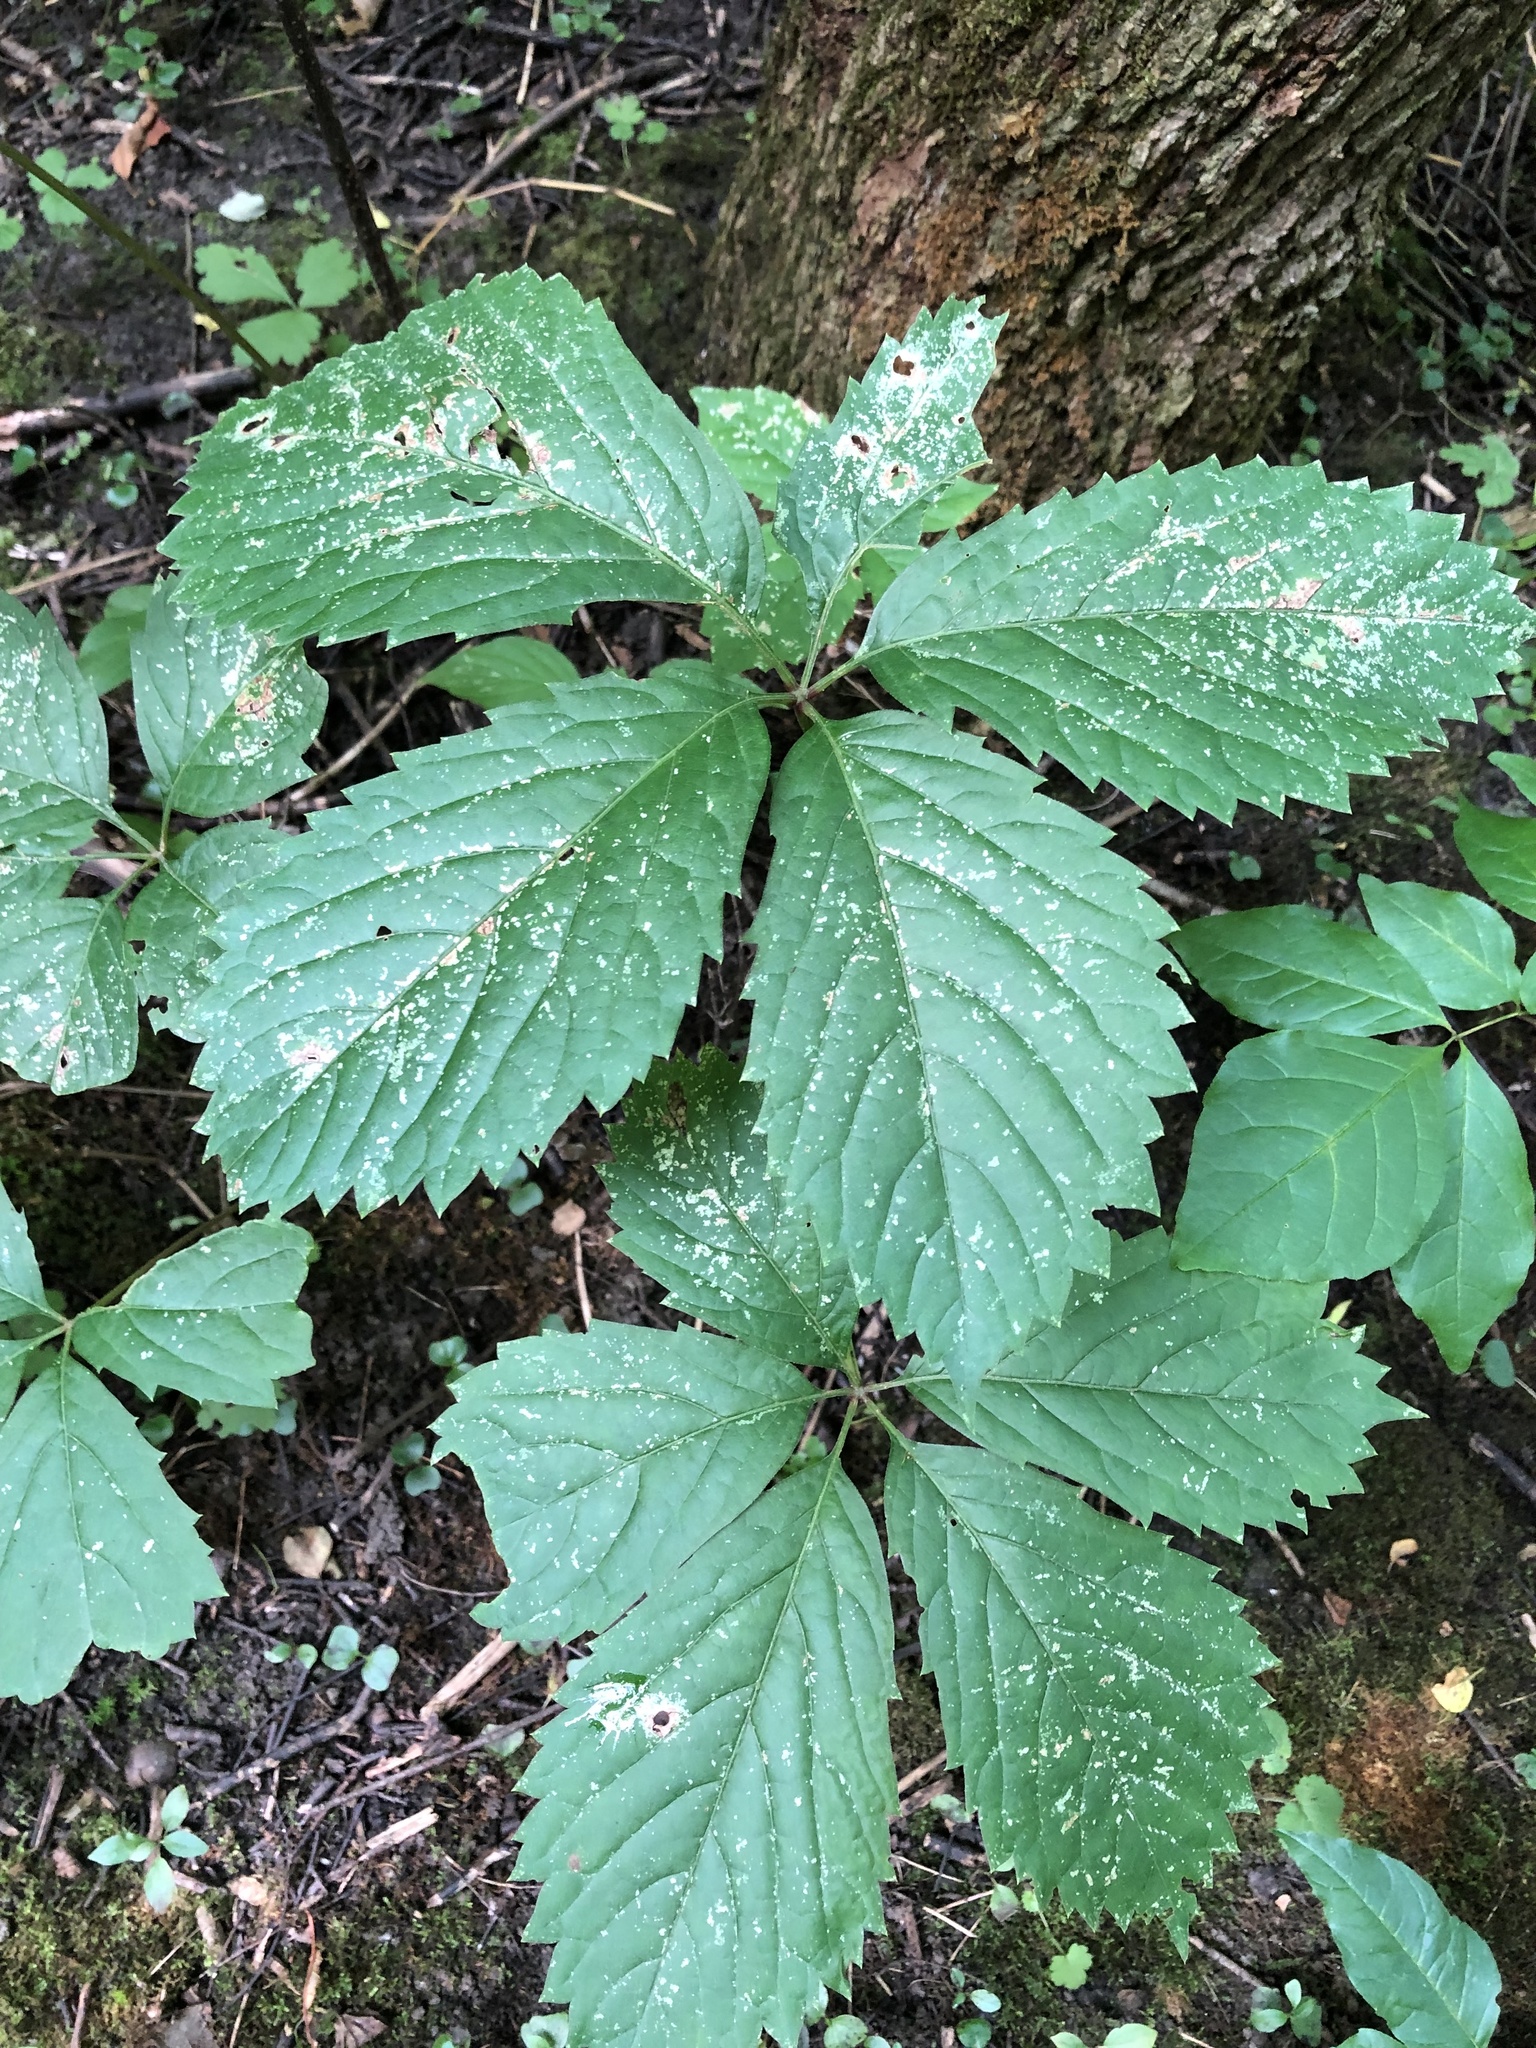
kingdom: Plantae
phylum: Tracheophyta
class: Magnoliopsida
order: Vitales
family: Vitaceae
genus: Parthenocissus
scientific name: Parthenocissus inserta
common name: False virginia-creeper
